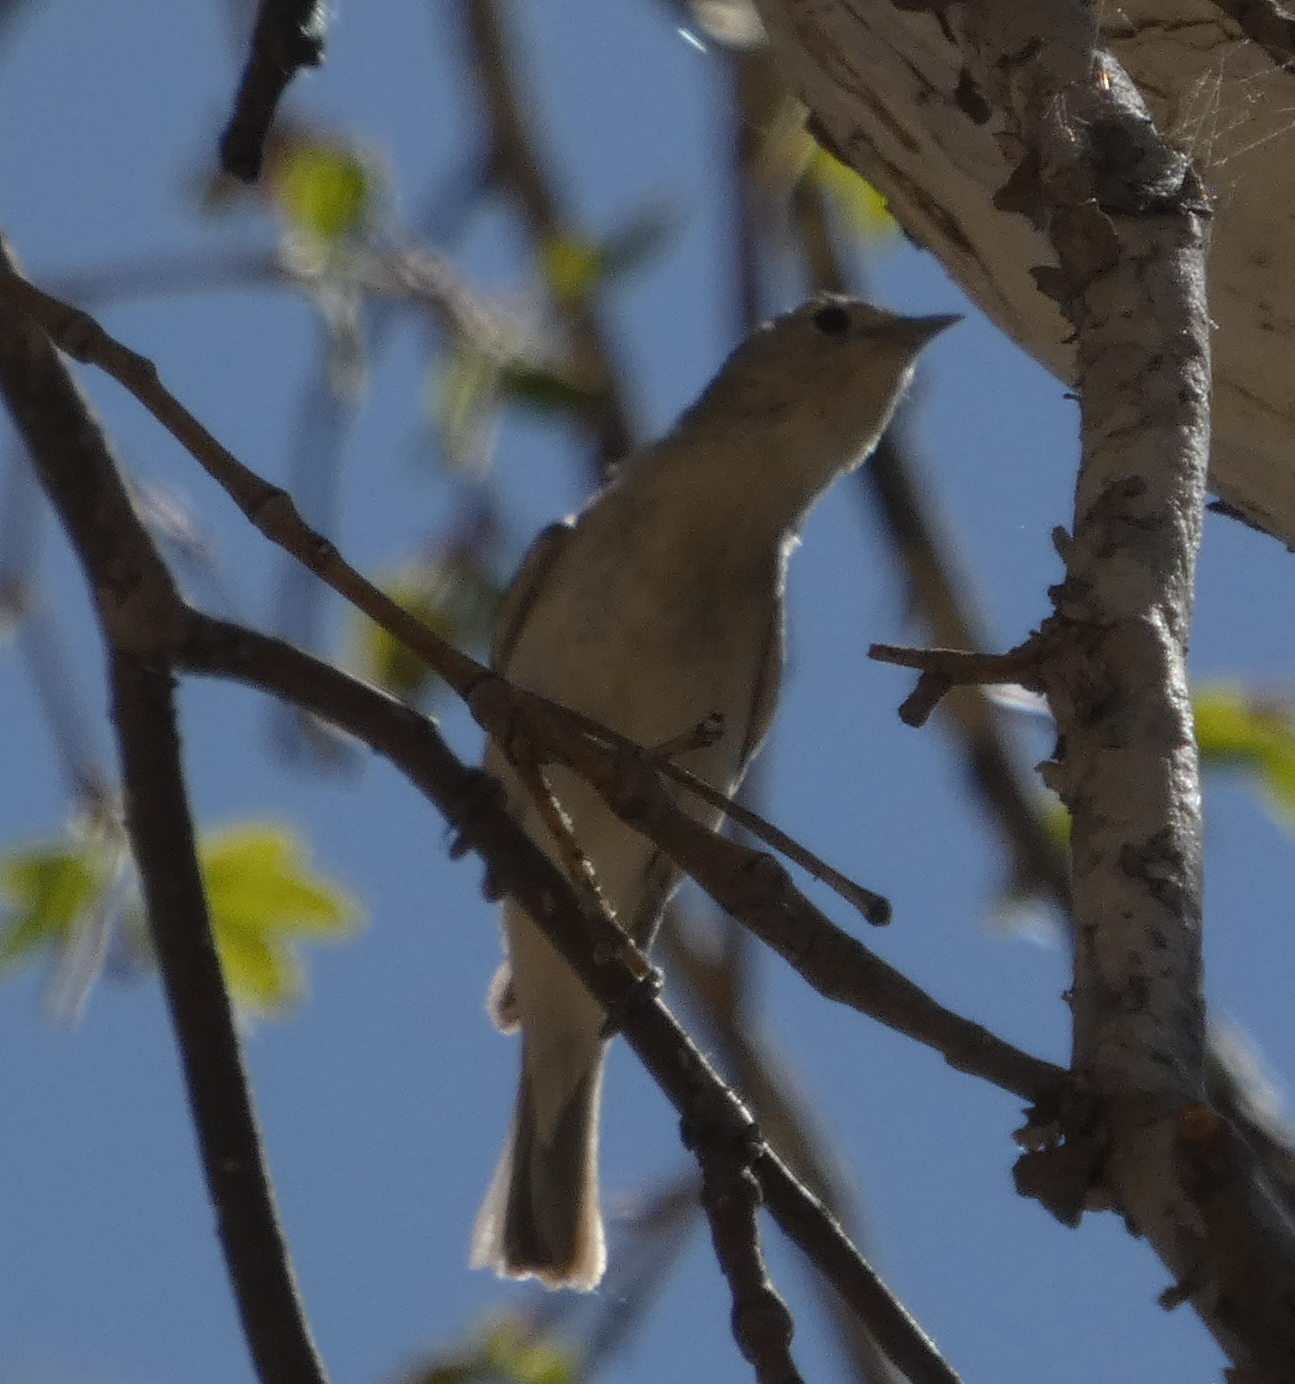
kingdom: Animalia
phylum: Chordata
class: Aves
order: Passeriformes
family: Parulidae
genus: Leiothlypis
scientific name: Leiothlypis luciae
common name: Lucy's warbler
